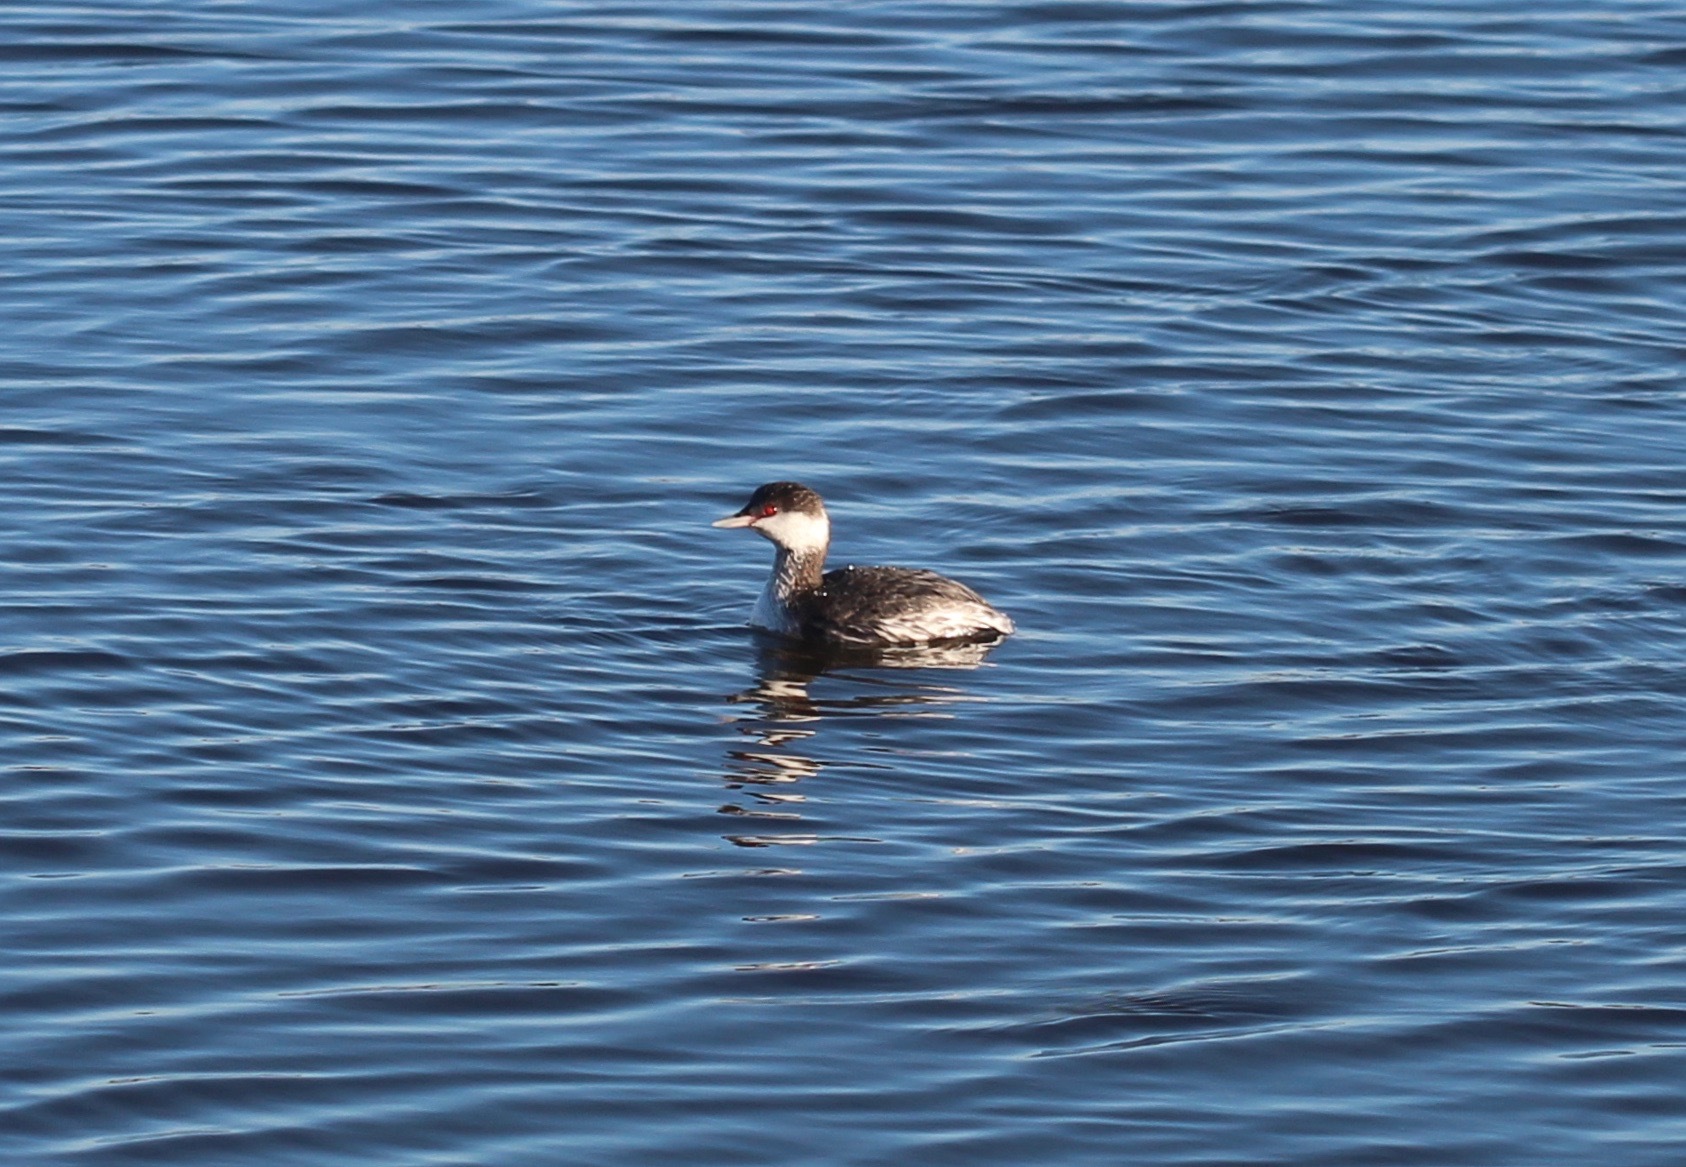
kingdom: Animalia
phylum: Chordata
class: Aves
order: Podicipediformes
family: Podicipedidae
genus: Podiceps
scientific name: Podiceps auritus
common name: Horned grebe
